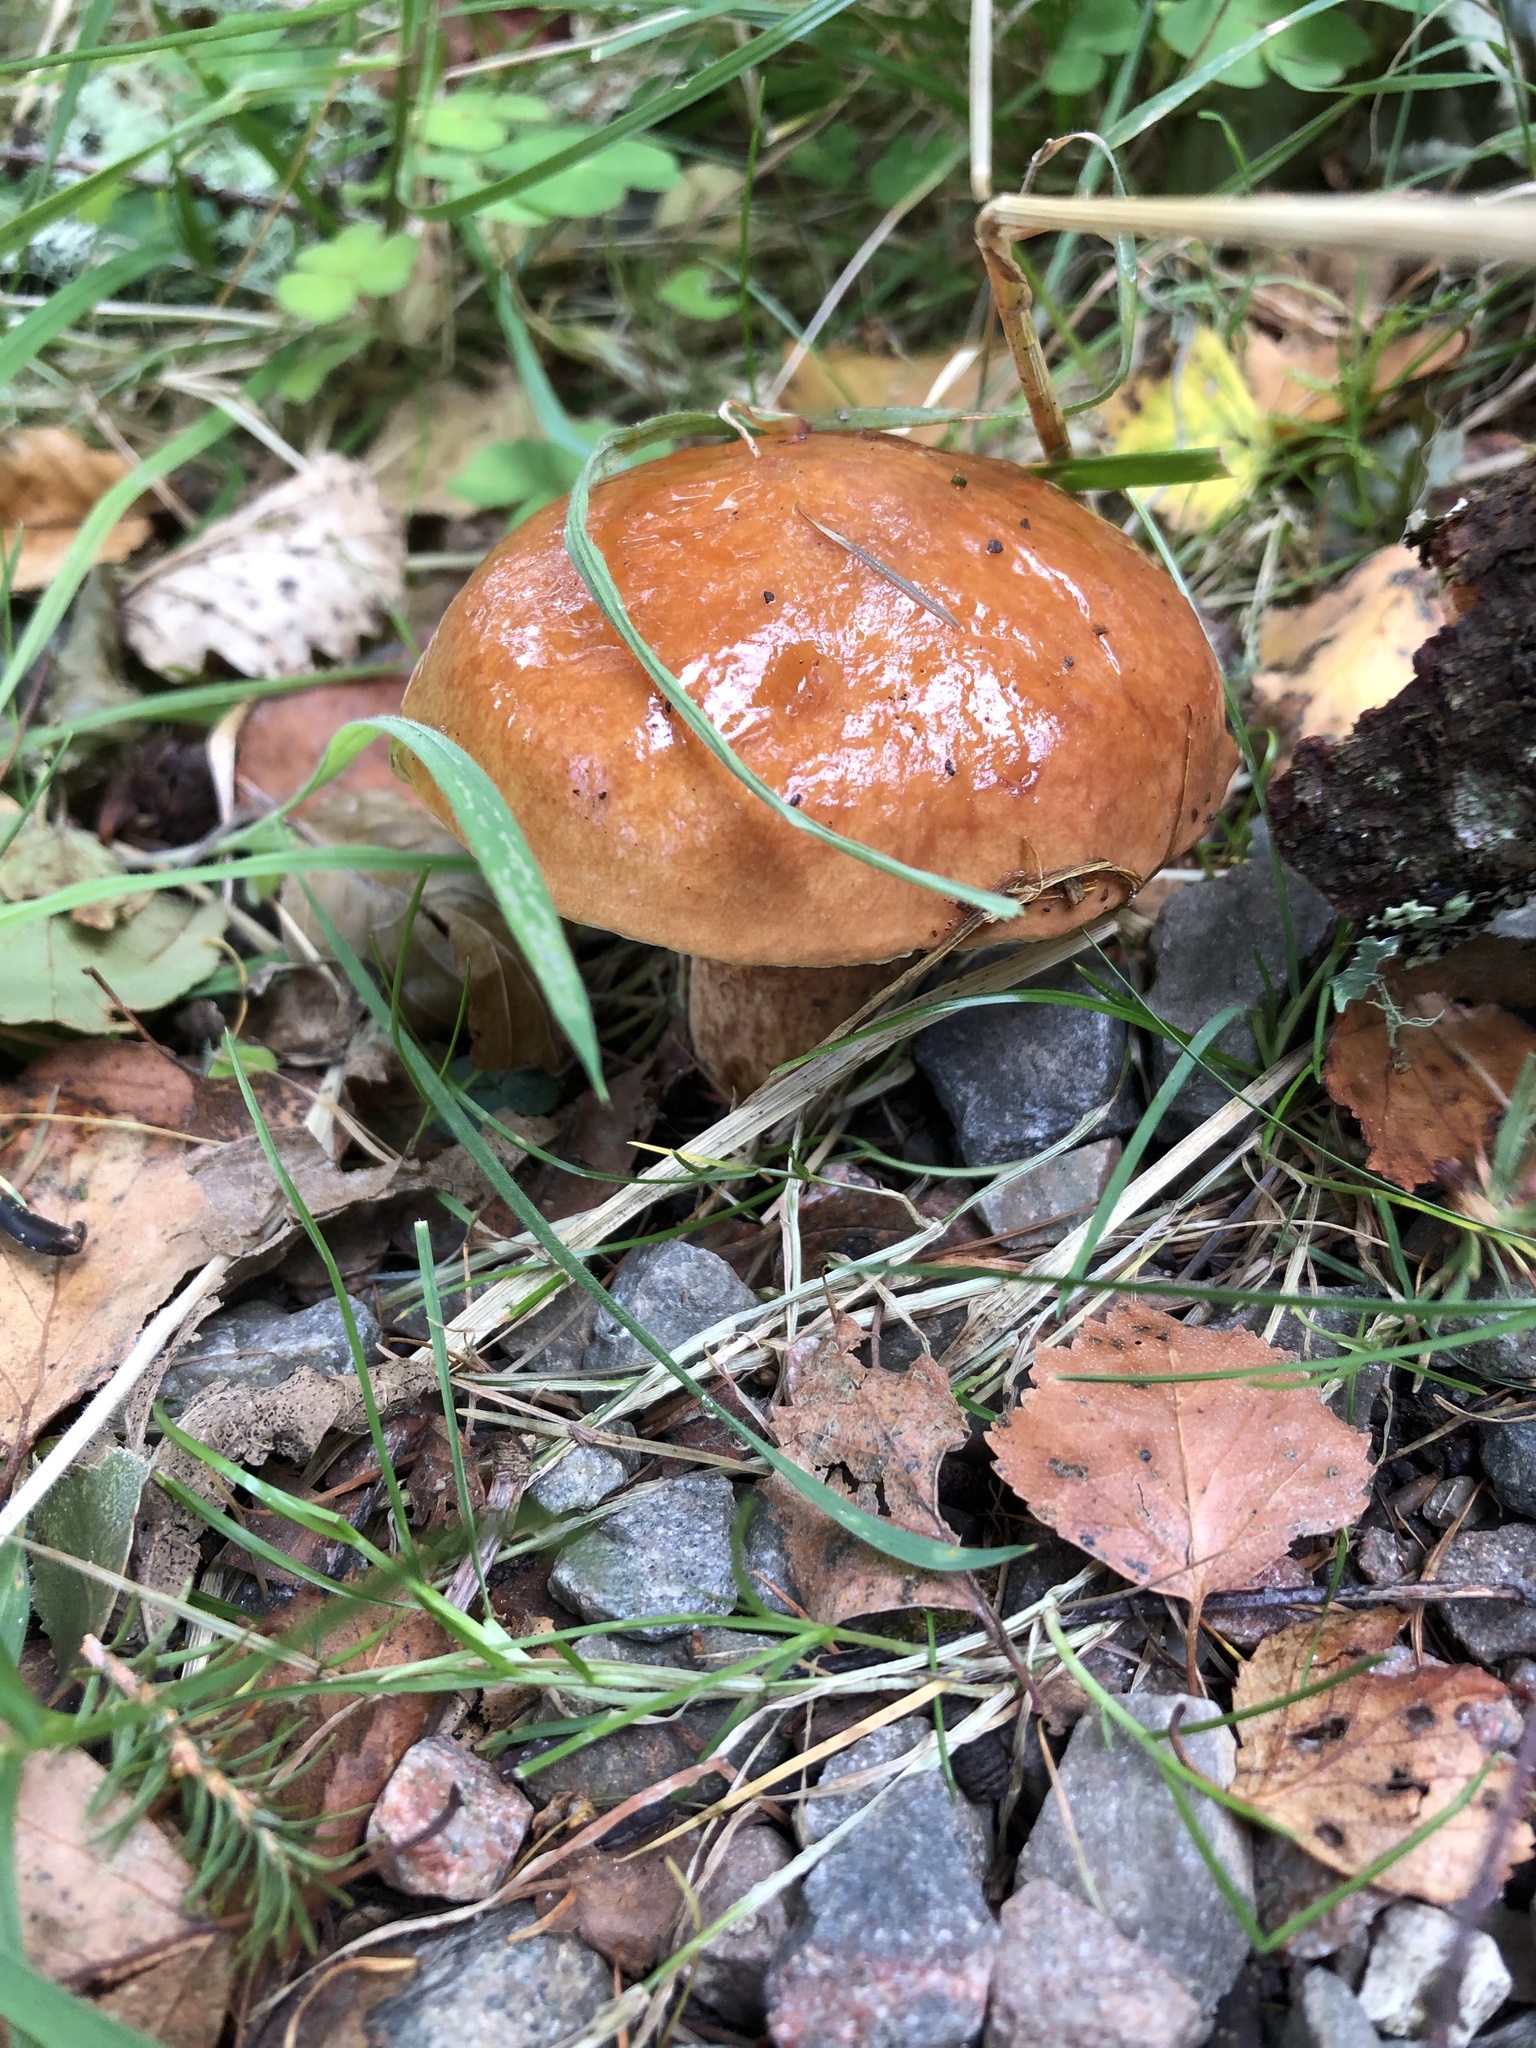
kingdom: Fungi
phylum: Basidiomycota
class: Agaricomycetes
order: Boletales
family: Suillaceae
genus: Suillus
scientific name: Suillus grevillei
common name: Larch bolete
